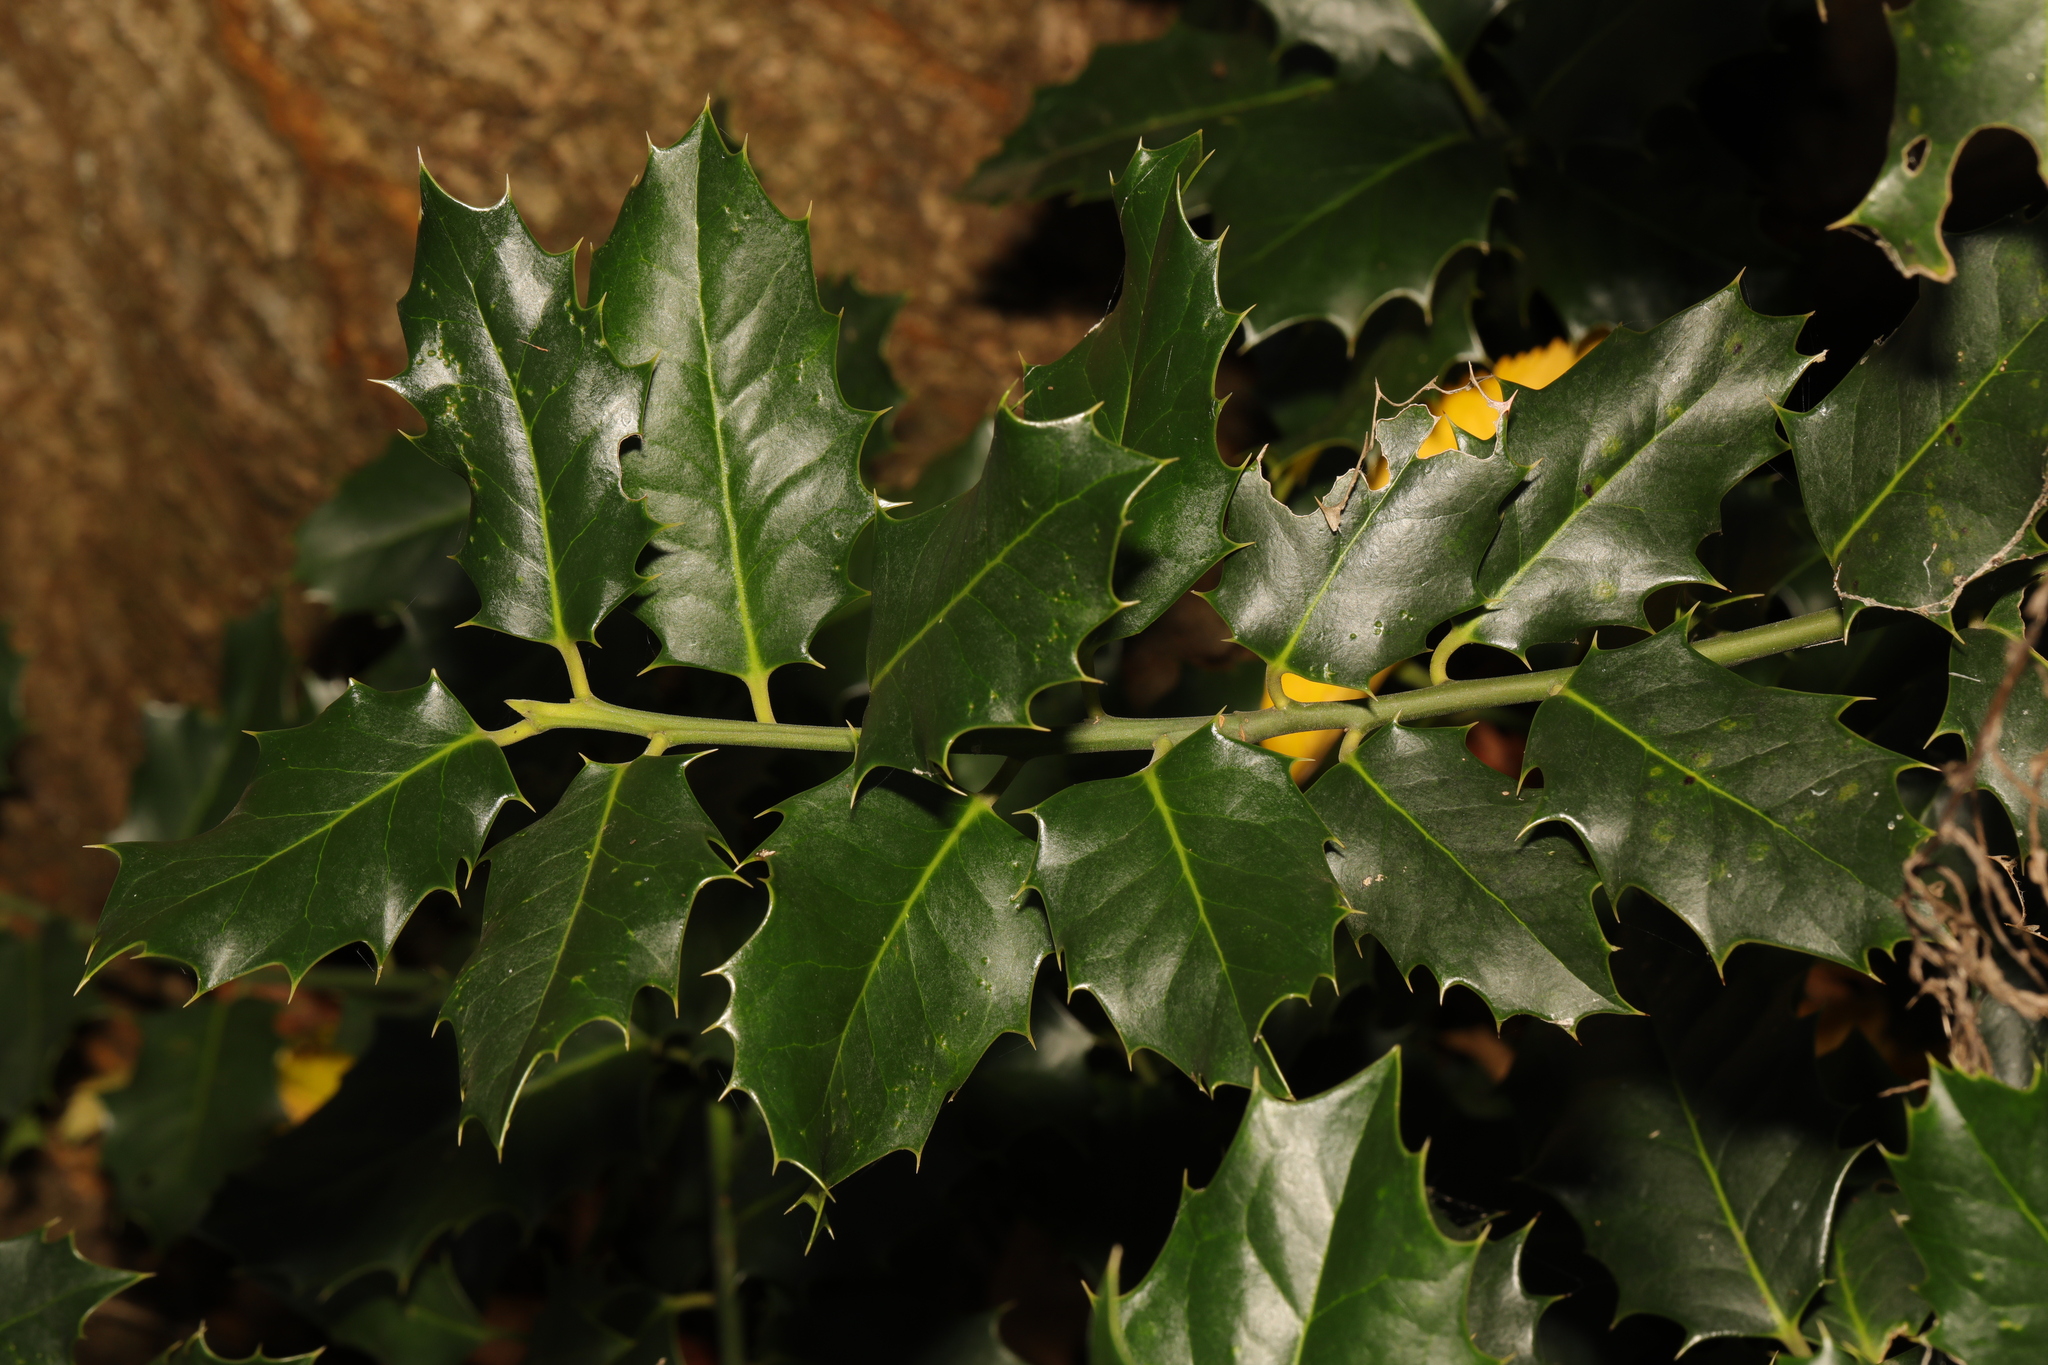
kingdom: Plantae
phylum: Tracheophyta
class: Magnoliopsida
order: Aquifoliales
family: Aquifoliaceae
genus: Ilex
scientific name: Ilex aquifolium
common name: English holly
